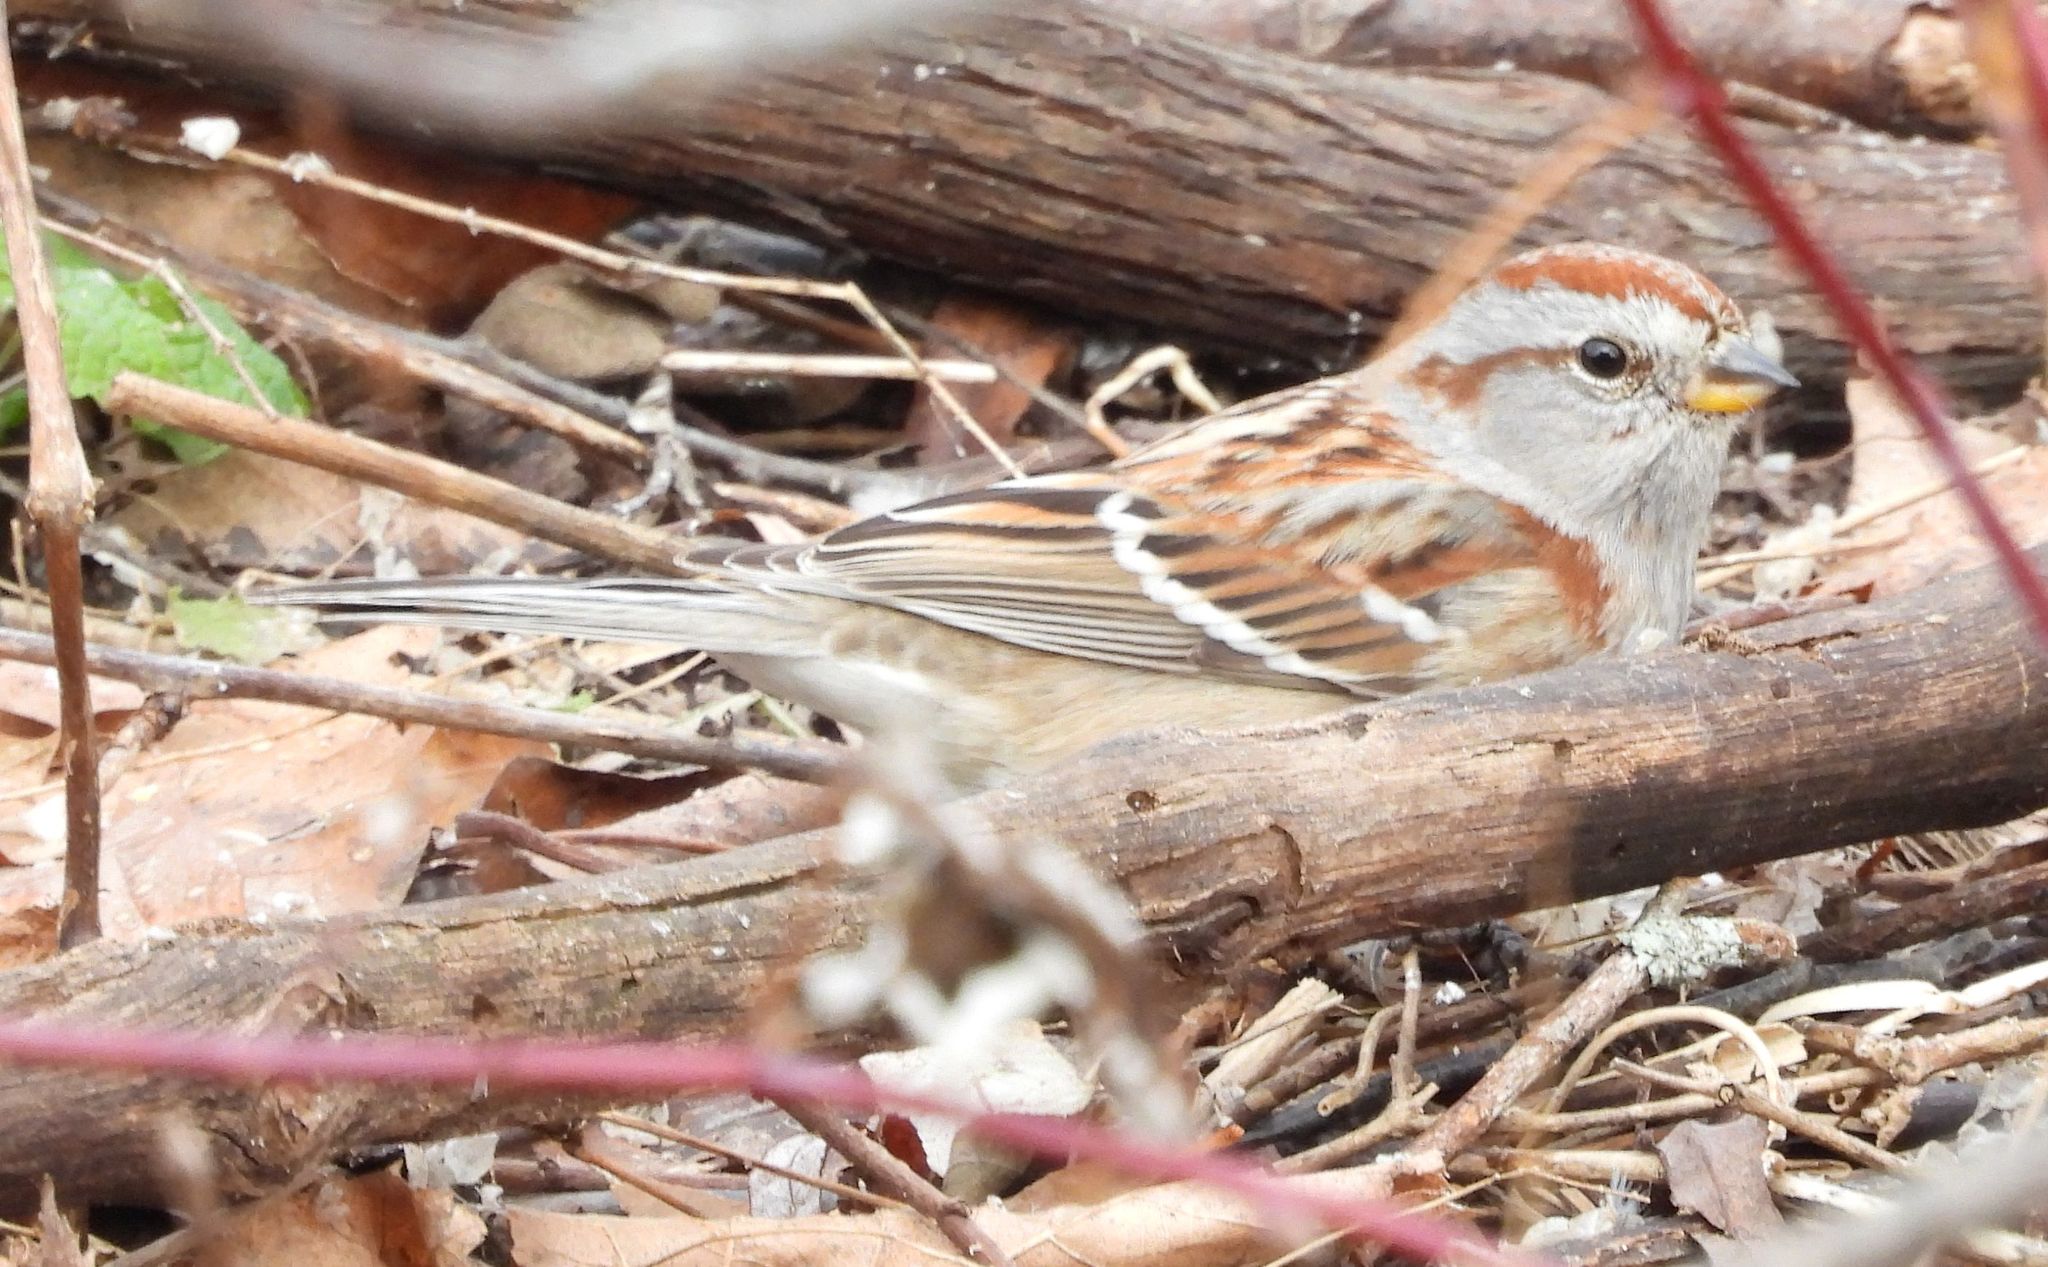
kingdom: Animalia
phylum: Chordata
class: Aves
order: Passeriformes
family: Passerellidae
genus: Spizelloides
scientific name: Spizelloides arborea
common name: American tree sparrow
